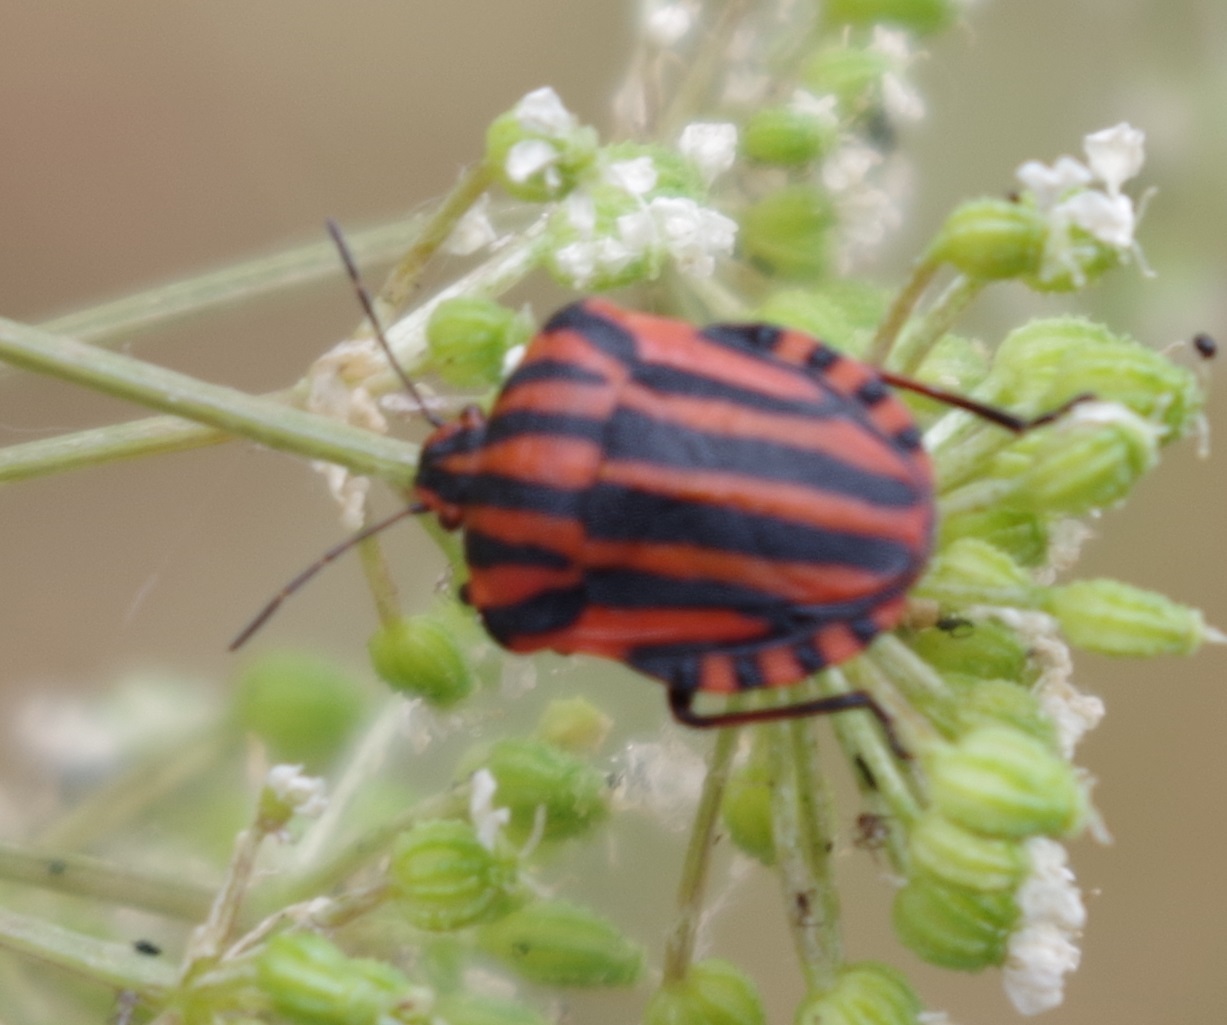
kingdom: Animalia
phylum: Arthropoda
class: Insecta
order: Hemiptera
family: Pentatomidae
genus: Graphosoma
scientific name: Graphosoma italicum
